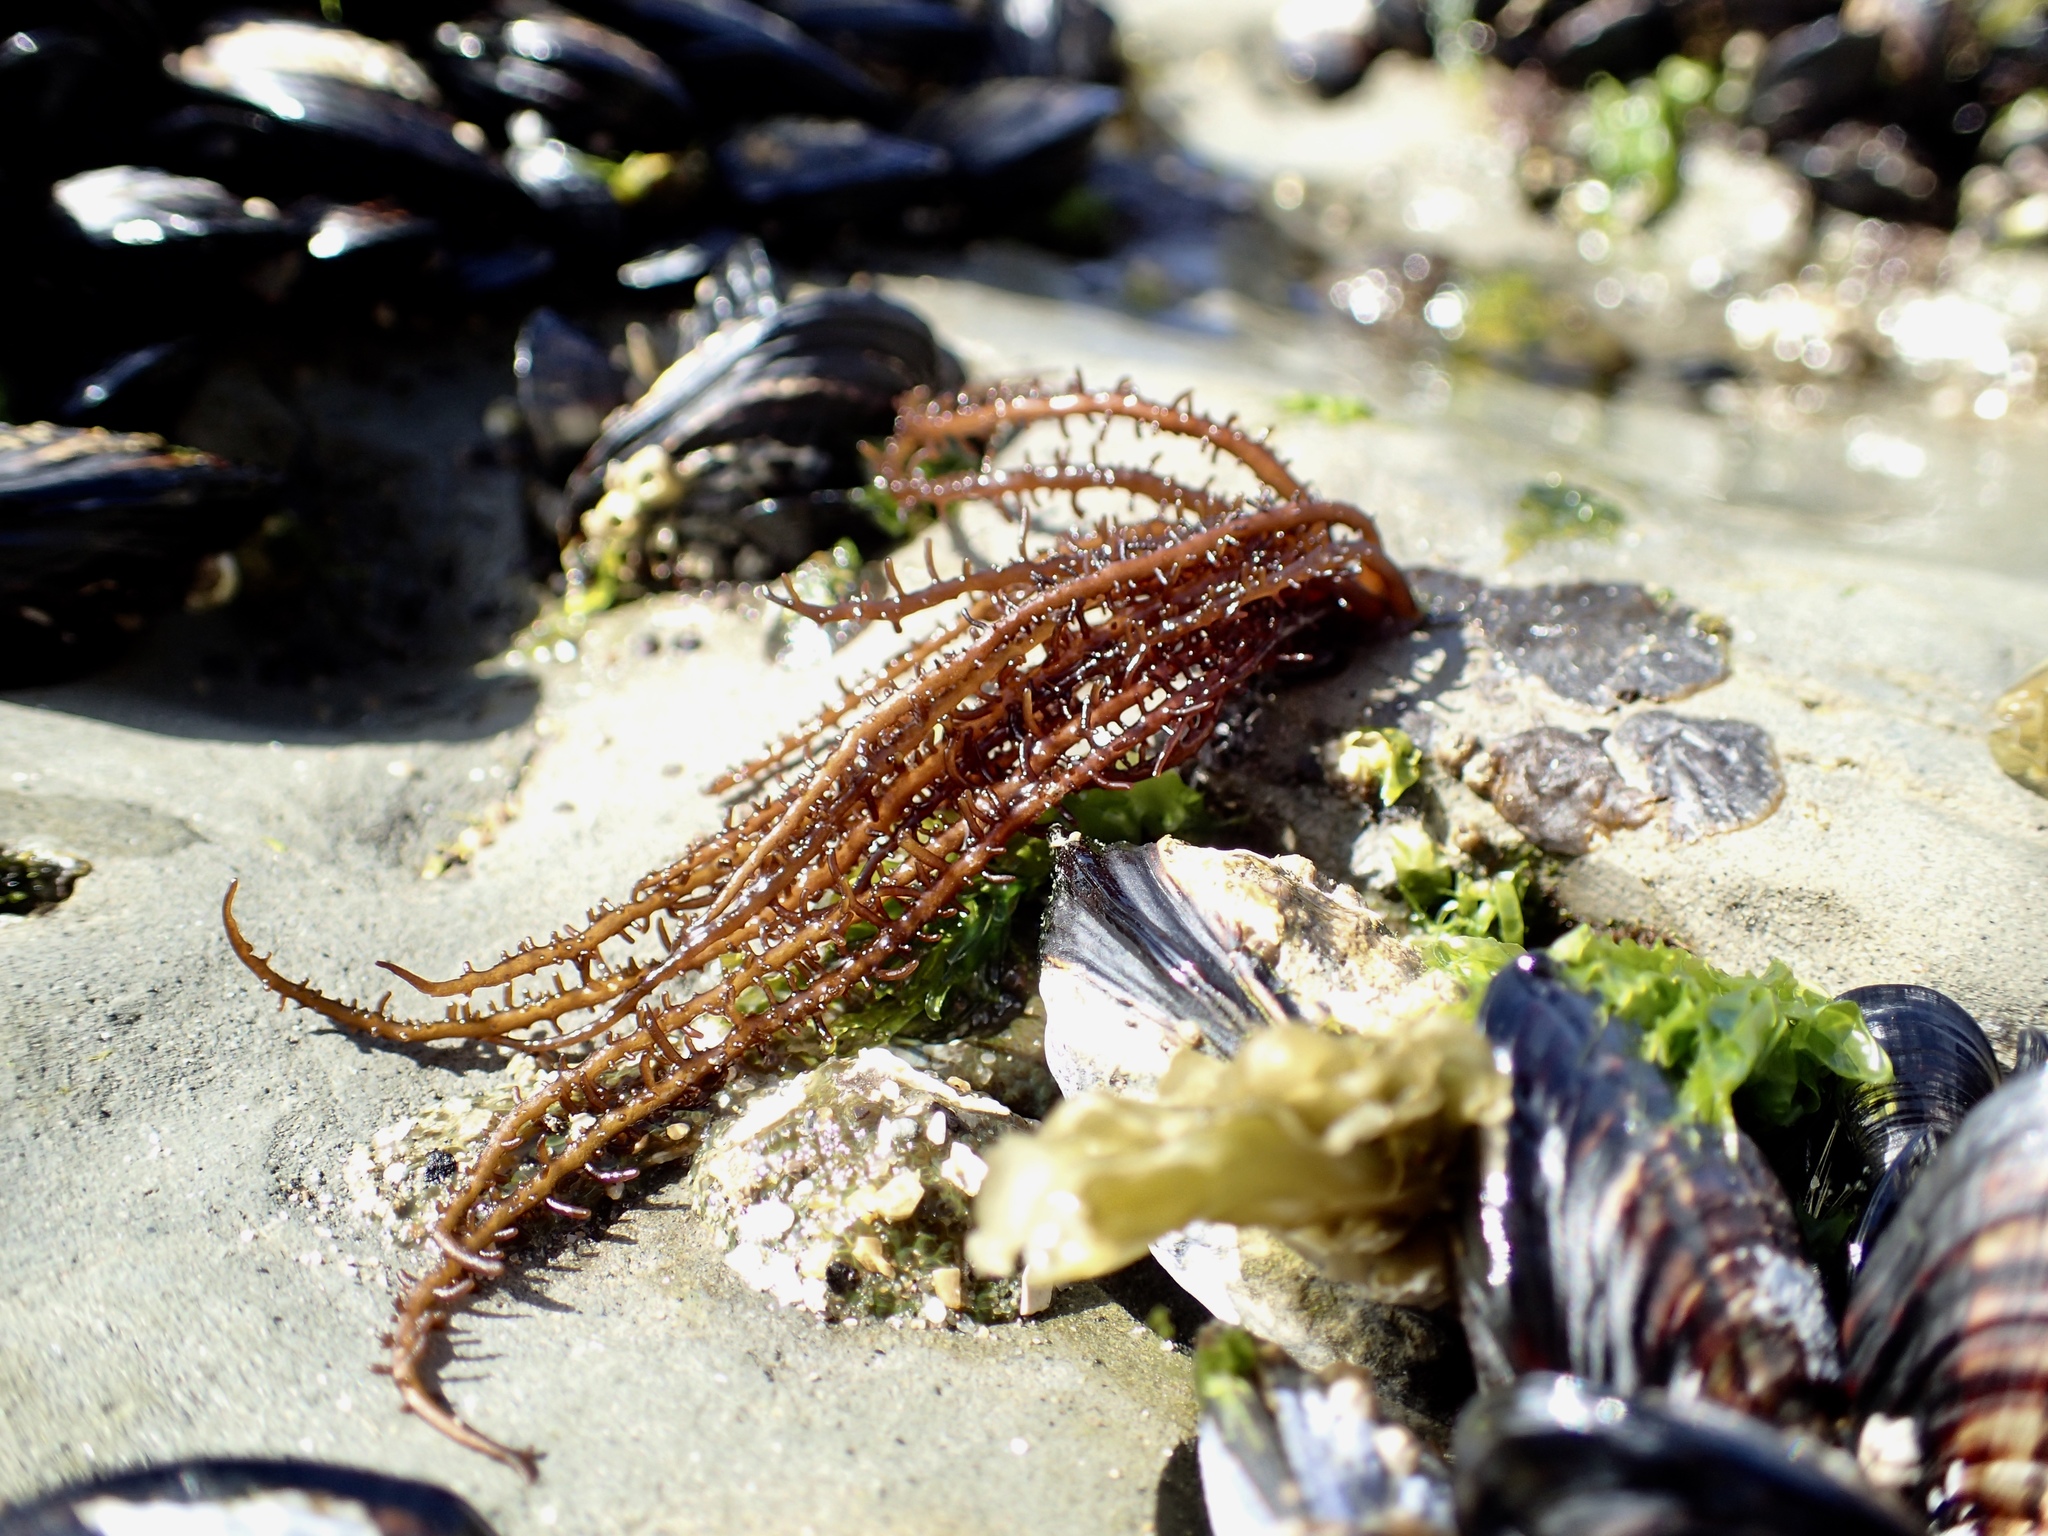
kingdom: Plantae
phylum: Rhodophyta
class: Florideophyceae
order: Nemaliales
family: Liagoraceae
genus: Cumagloia
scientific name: Cumagloia andersonii
